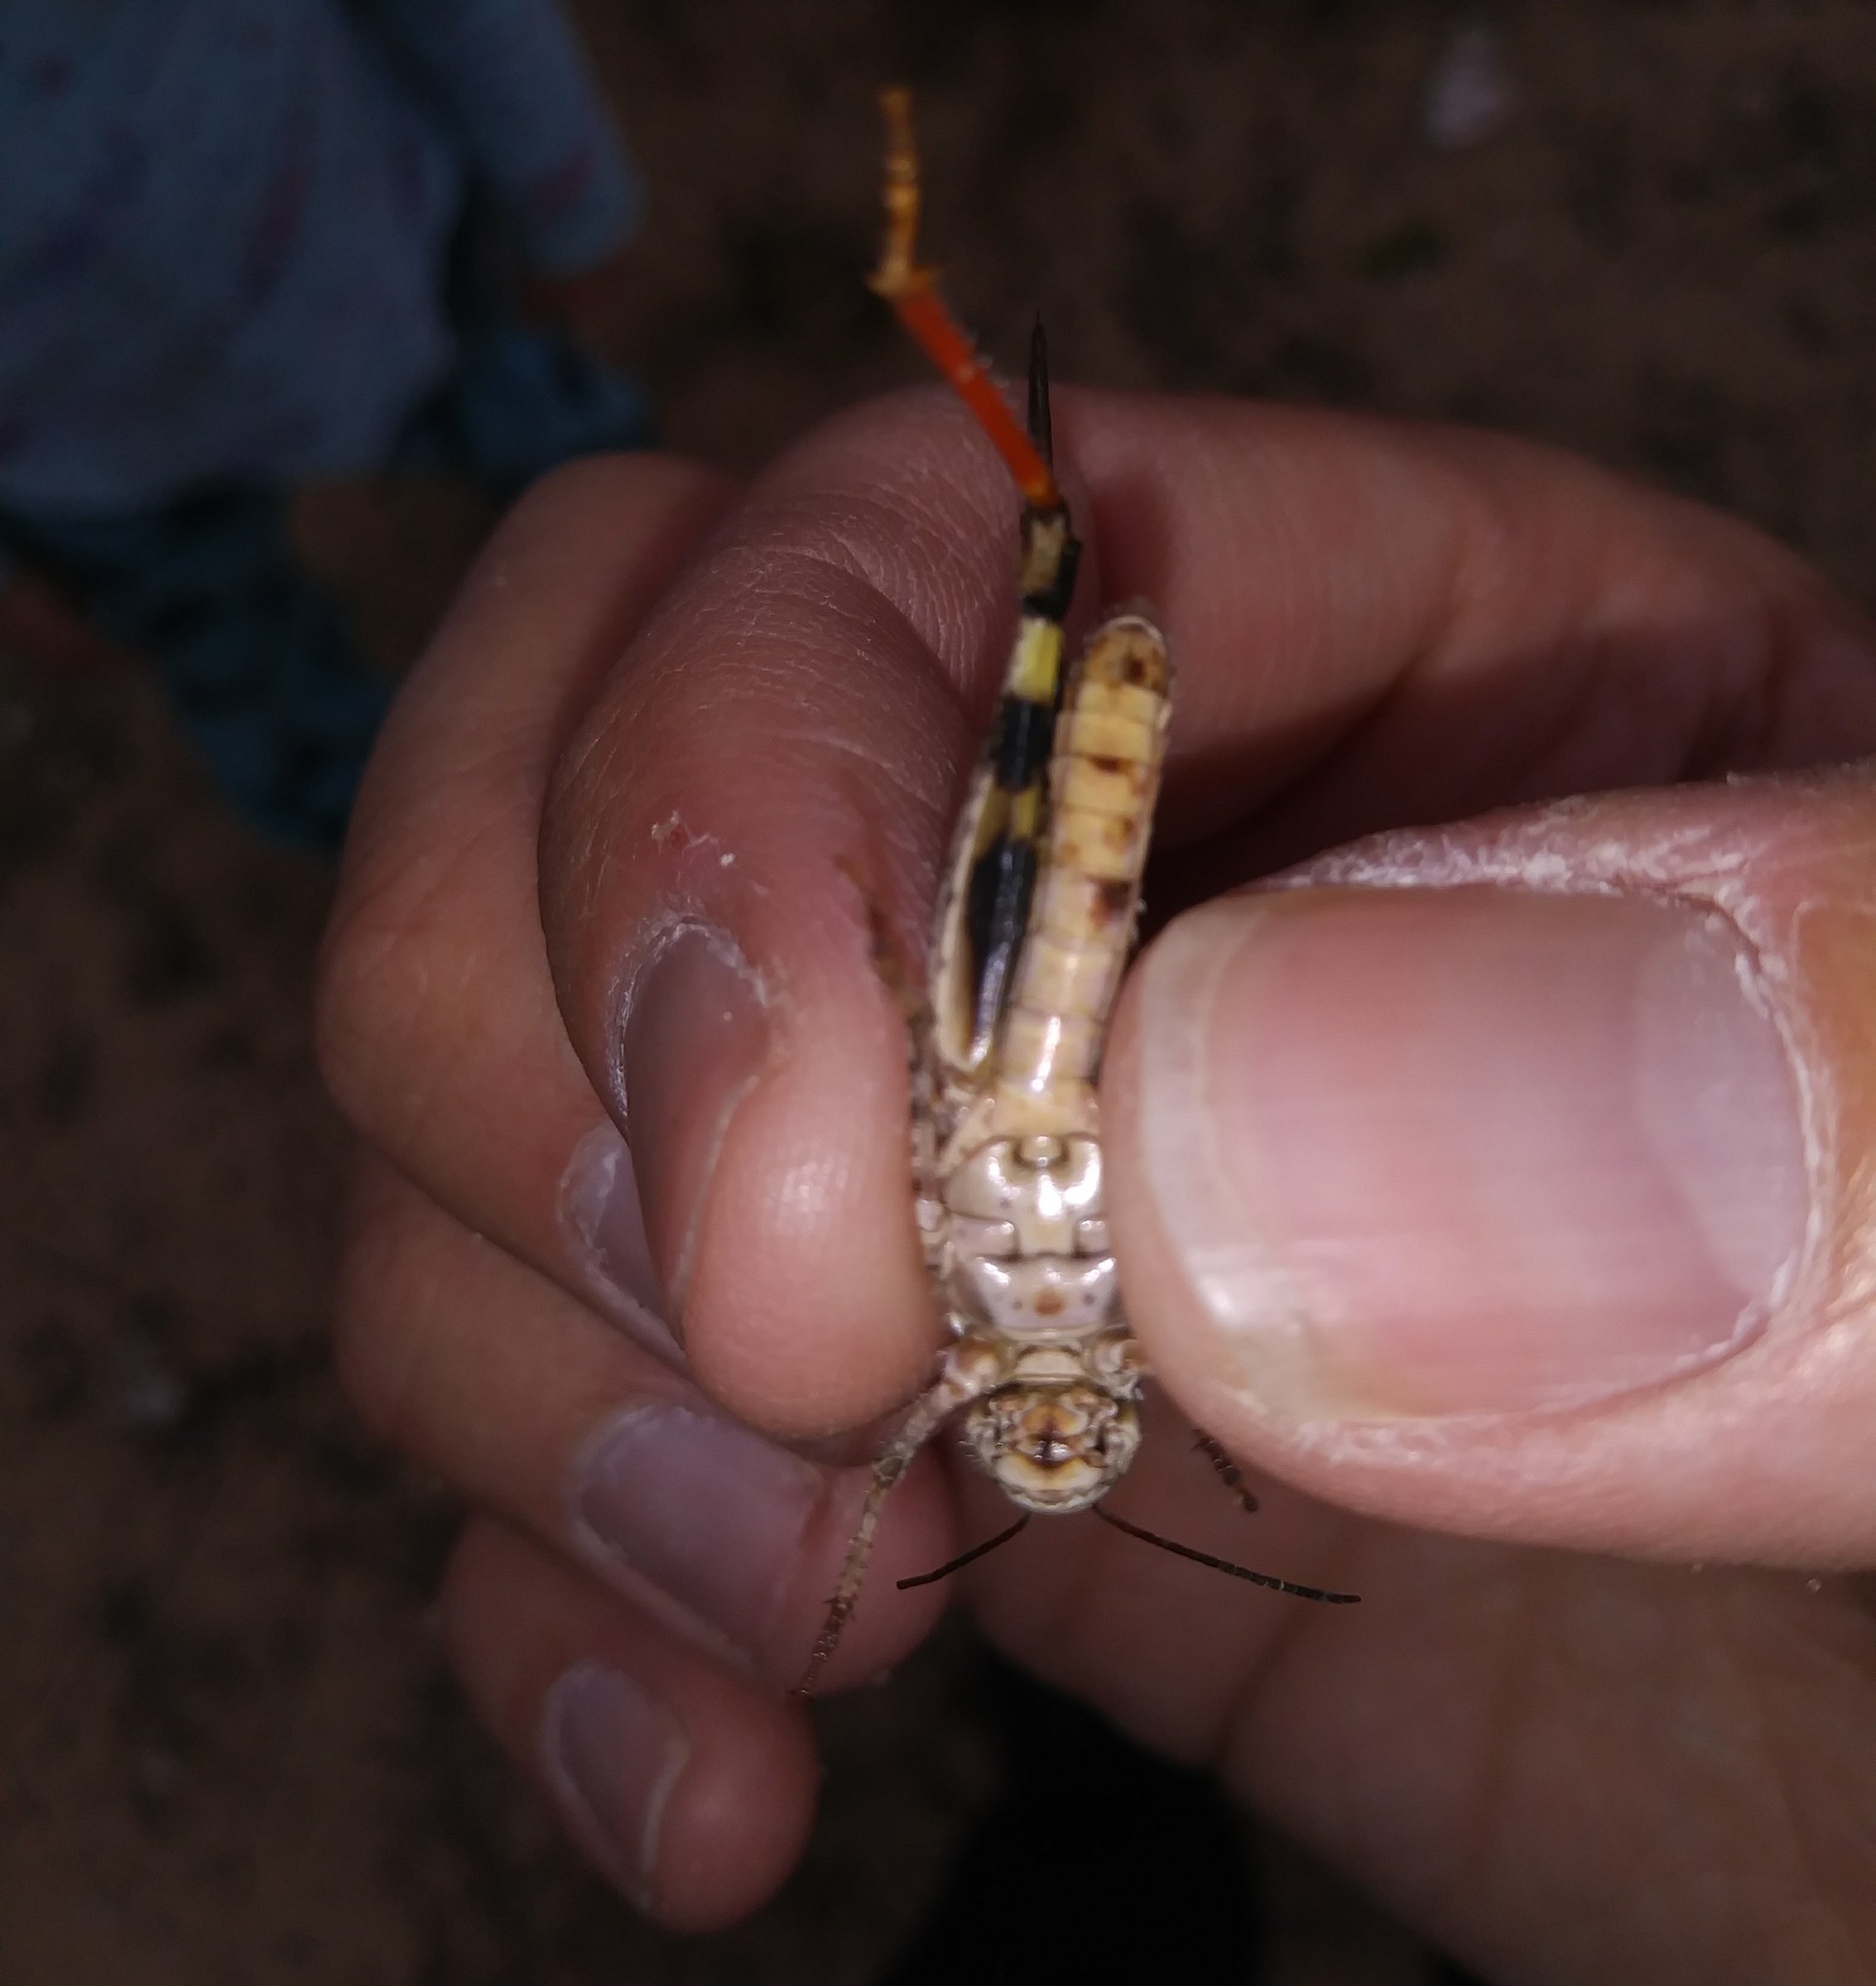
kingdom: Animalia
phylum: Arthropoda
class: Insecta
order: Orthoptera
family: Acrididae
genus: Spharagemon
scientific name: Spharagemon cristatum
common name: Ridgeback sand grasshopper
